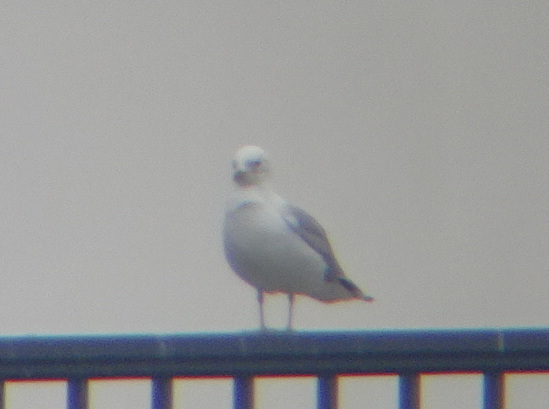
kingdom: Animalia
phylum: Chordata
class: Aves
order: Charadriiformes
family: Laridae
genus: Larus
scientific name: Larus canus
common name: Mew gull
